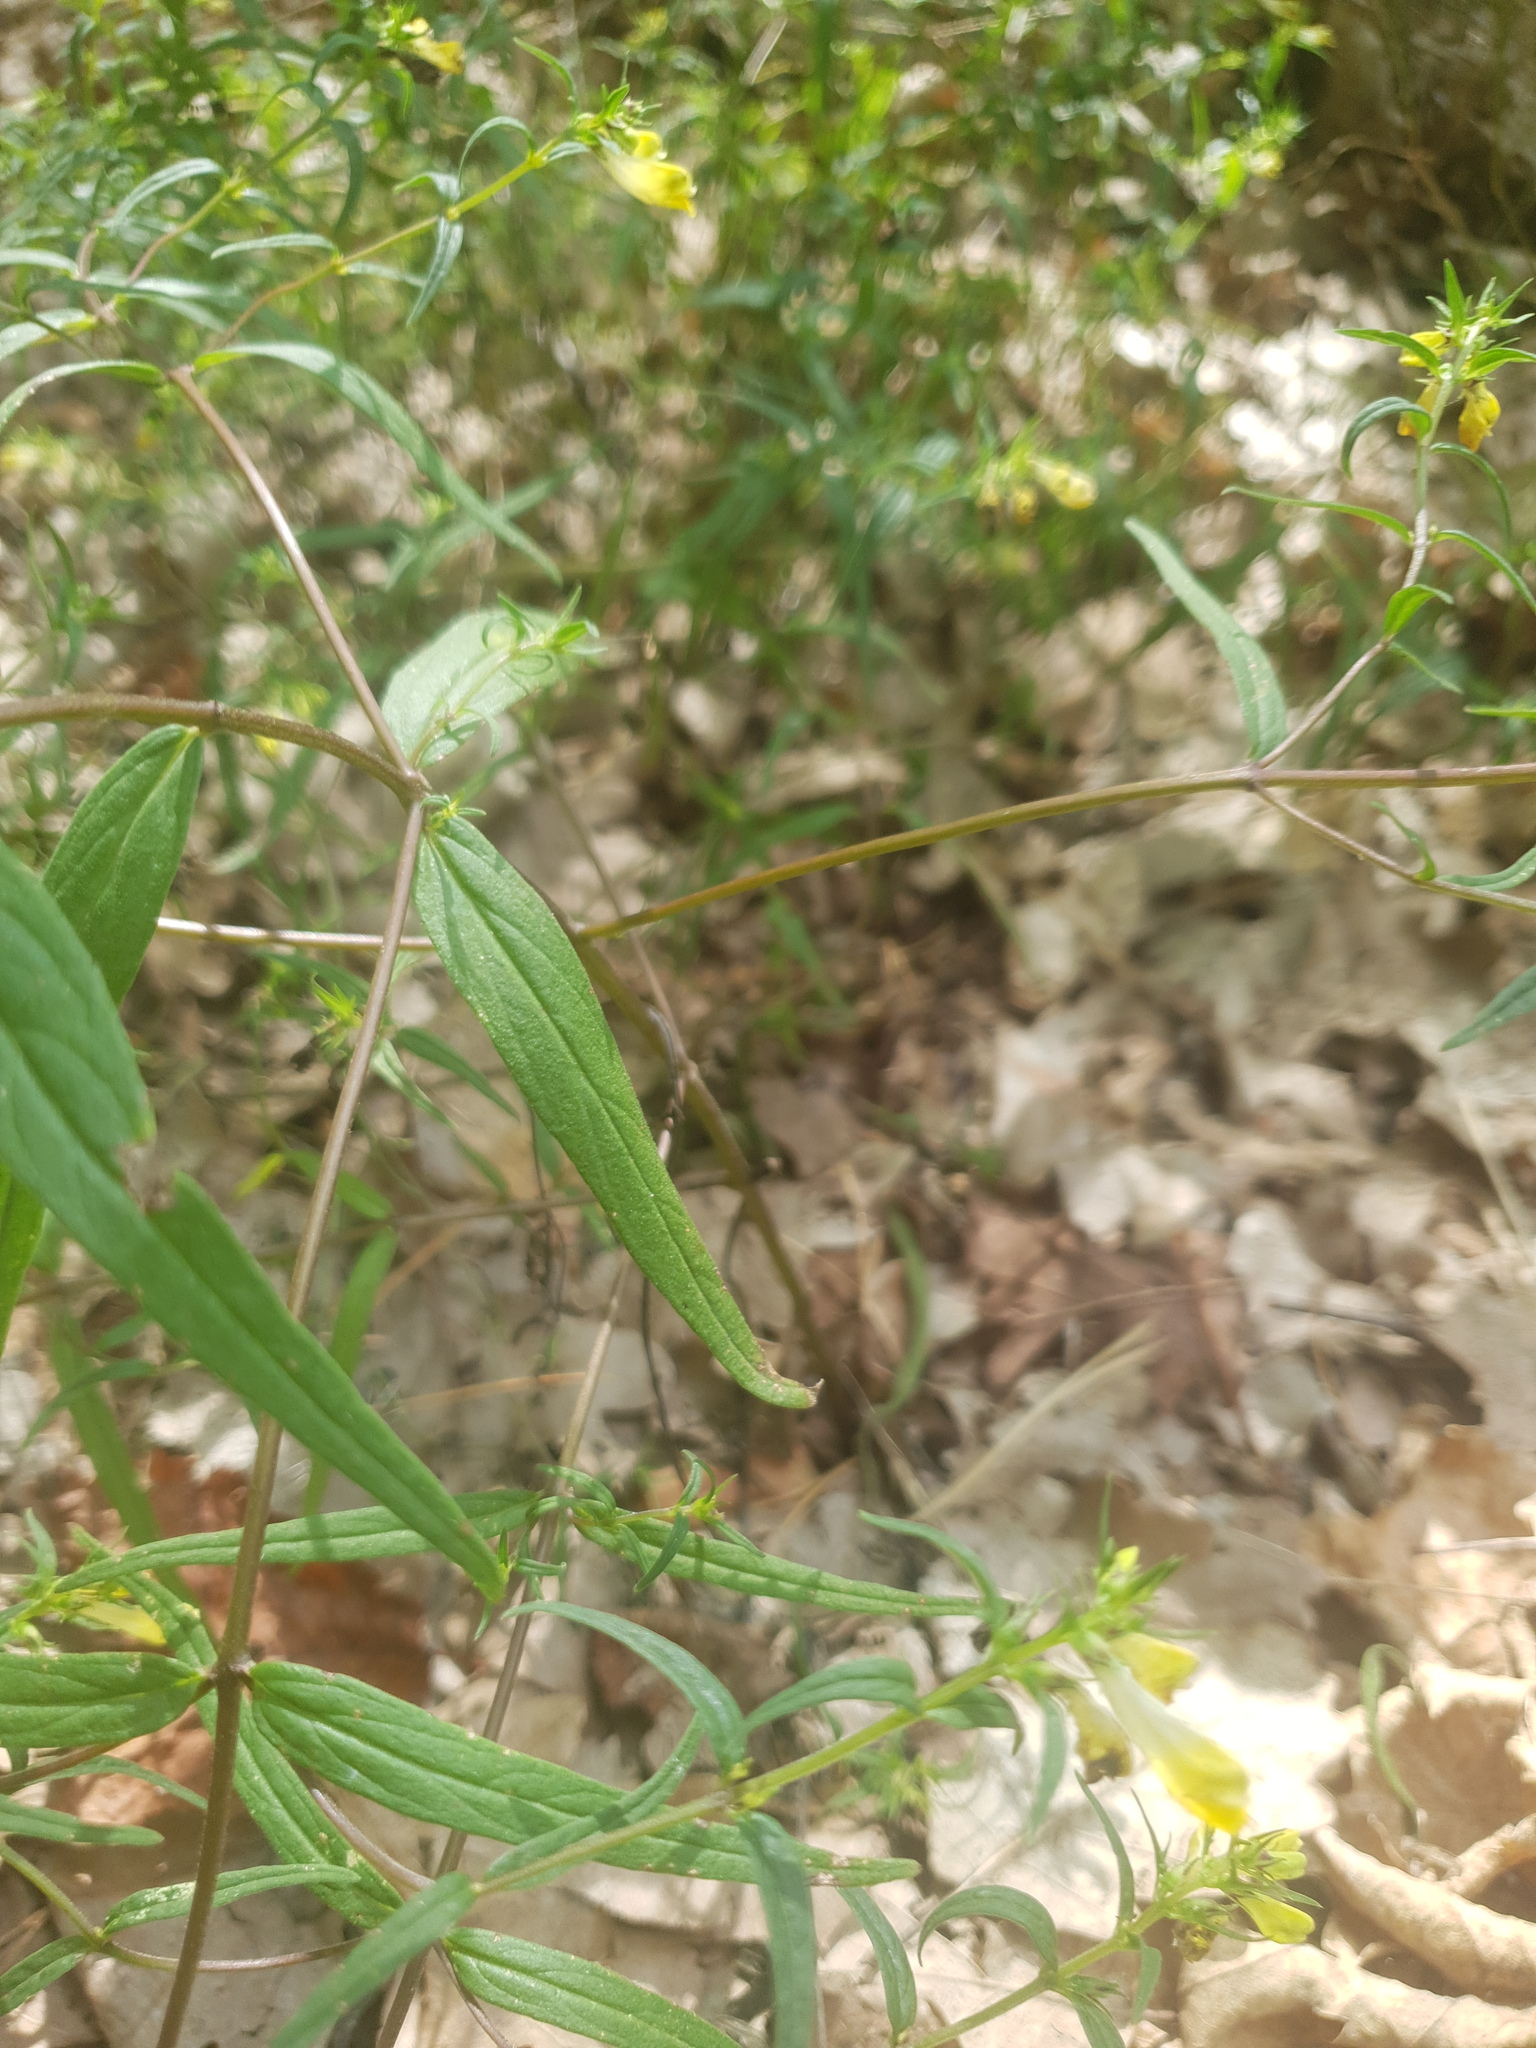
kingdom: Plantae
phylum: Tracheophyta
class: Magnoliopsida
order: Lamiales
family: Orobanchaceae
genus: Melampyrum
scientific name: Melampyrum pratense
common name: Common cow-wheat
